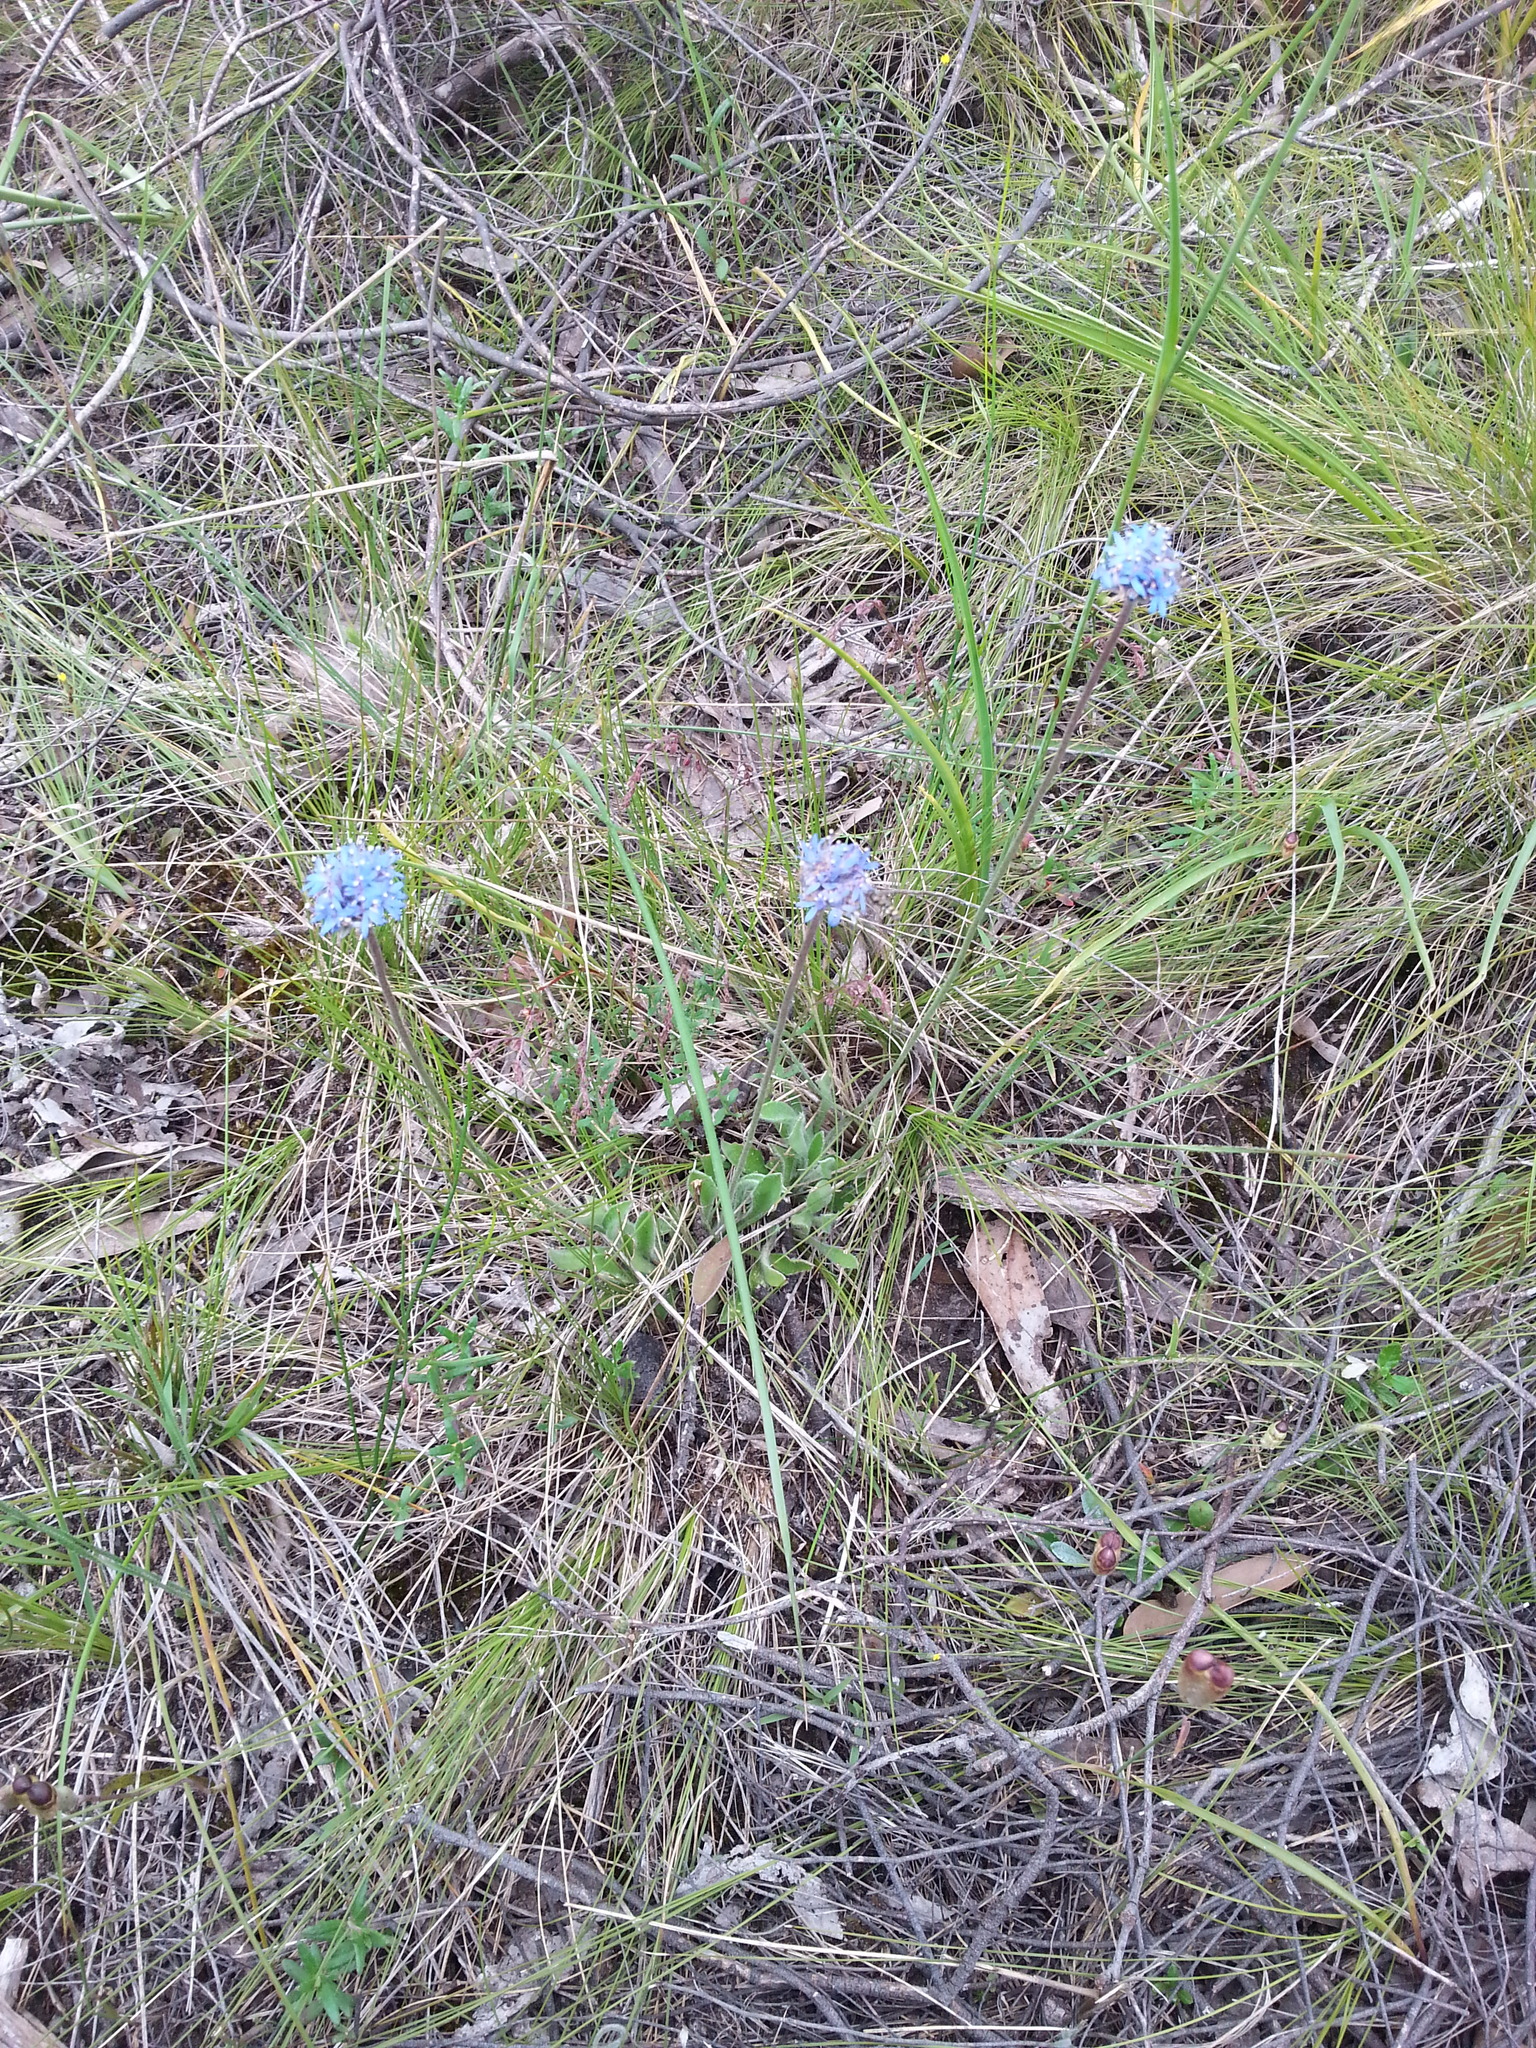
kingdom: Plantae
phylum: Tracheophyta
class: Magnoliopsida
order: Asterales
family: Goodeniaceae
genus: Brunonia
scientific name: Brunonia australis
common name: Blue pincushion
